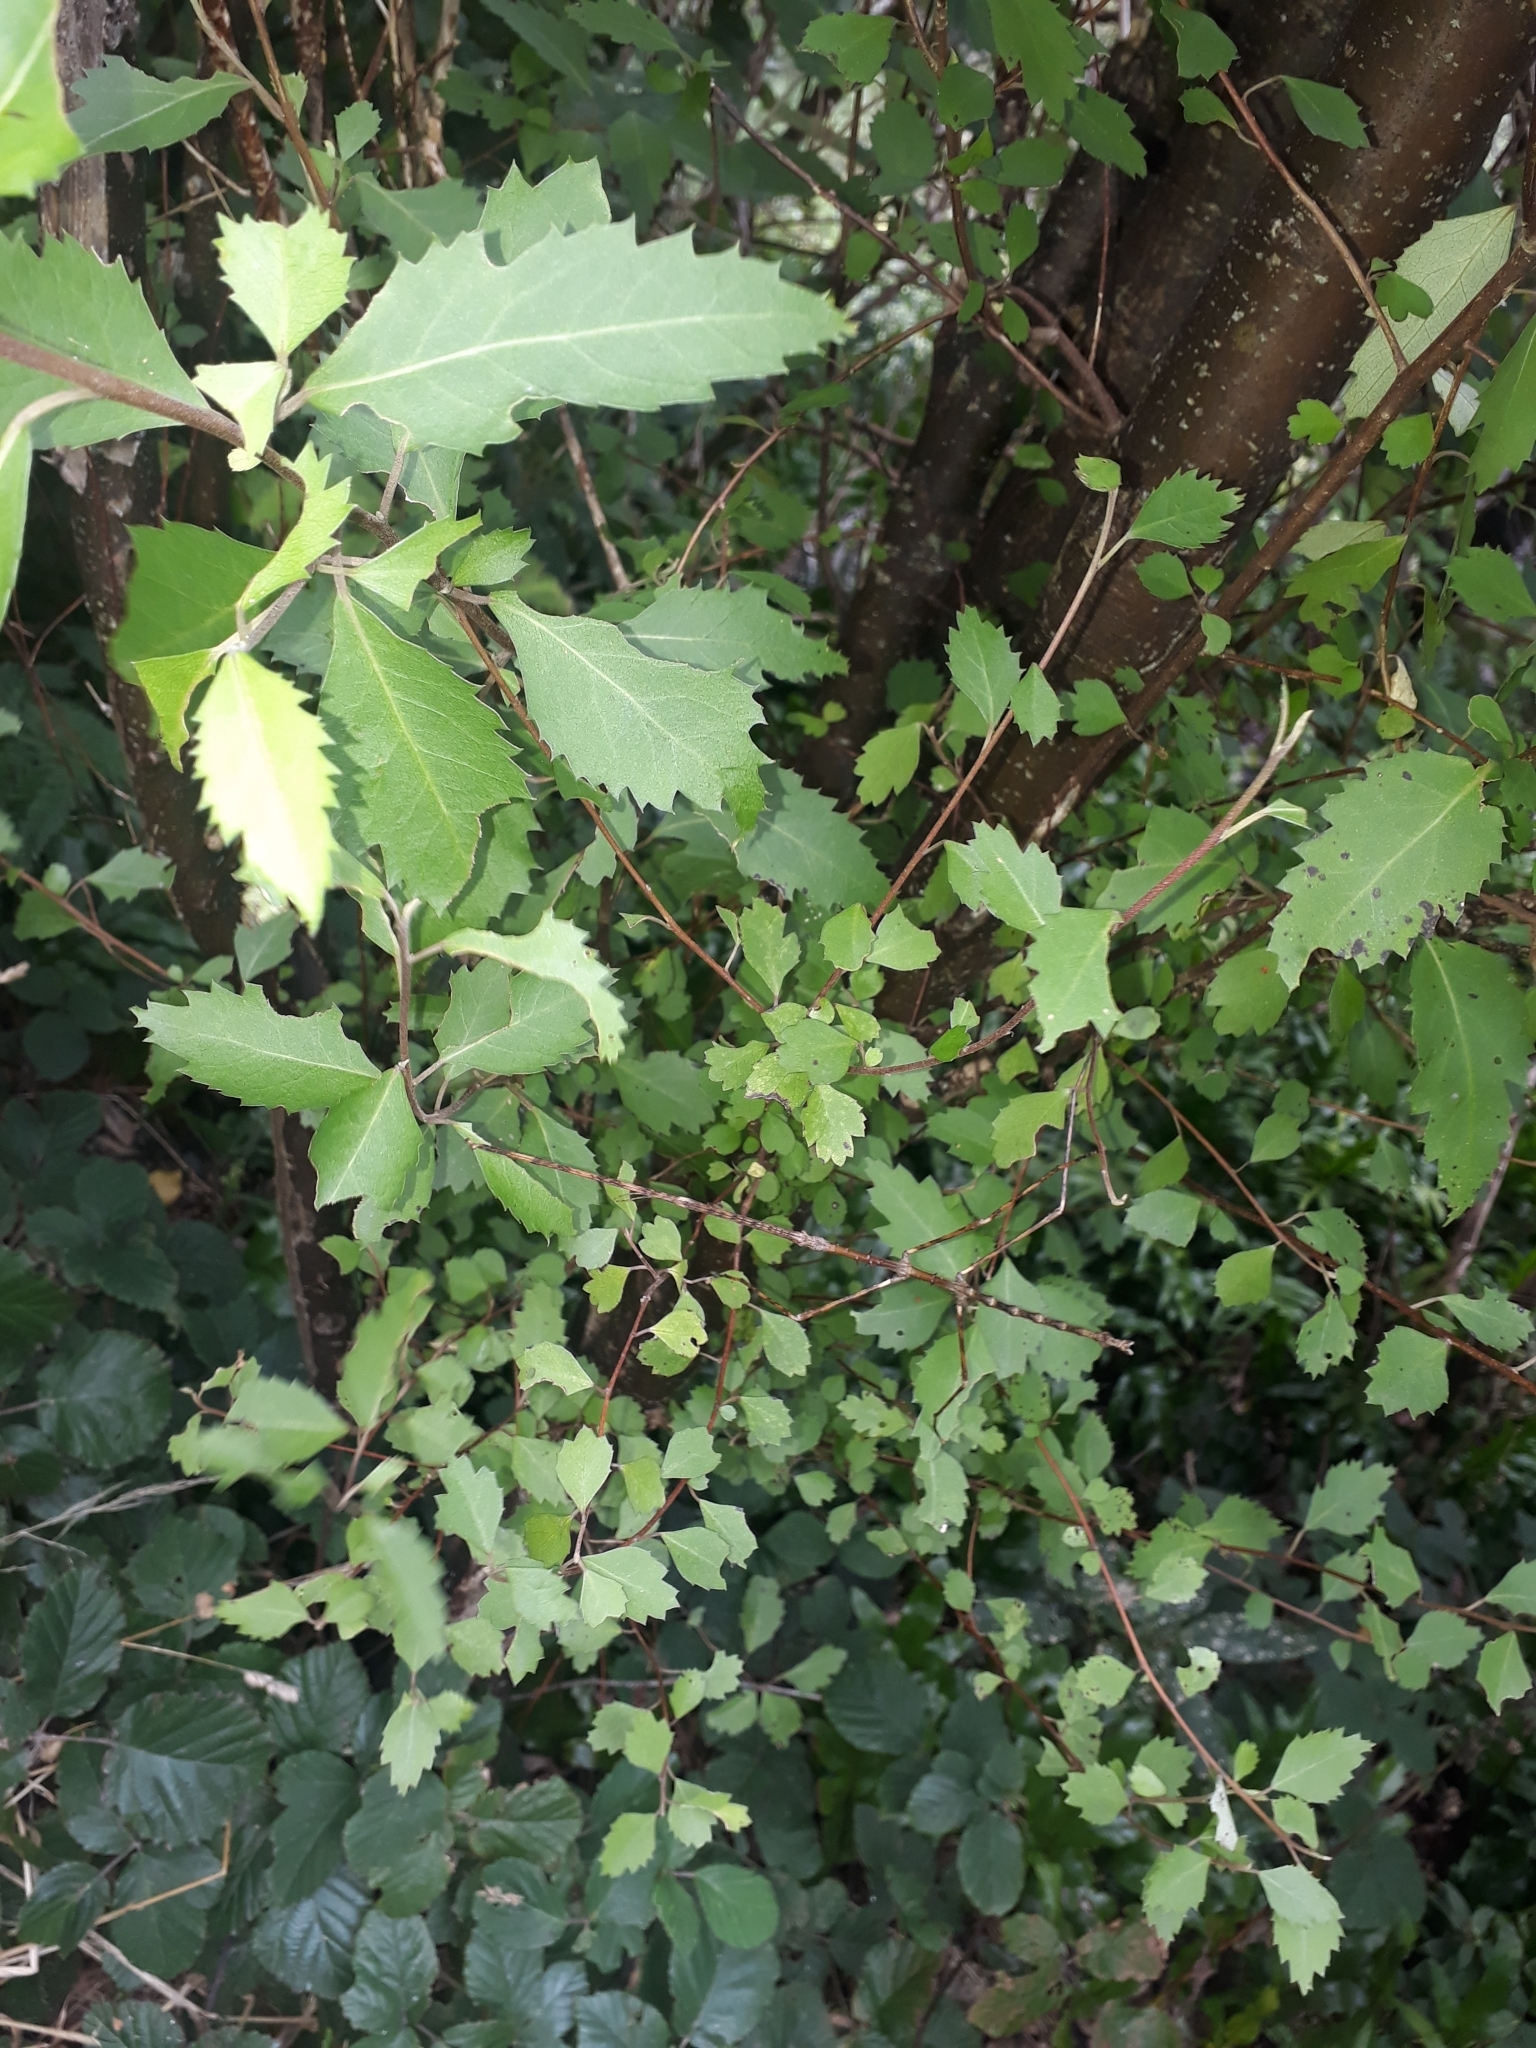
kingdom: Plantae
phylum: Tracheophyta
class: Magnoliopsida
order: Malvales
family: Malvaceae
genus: Hoheria
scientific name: Hoheria sexstylosa
